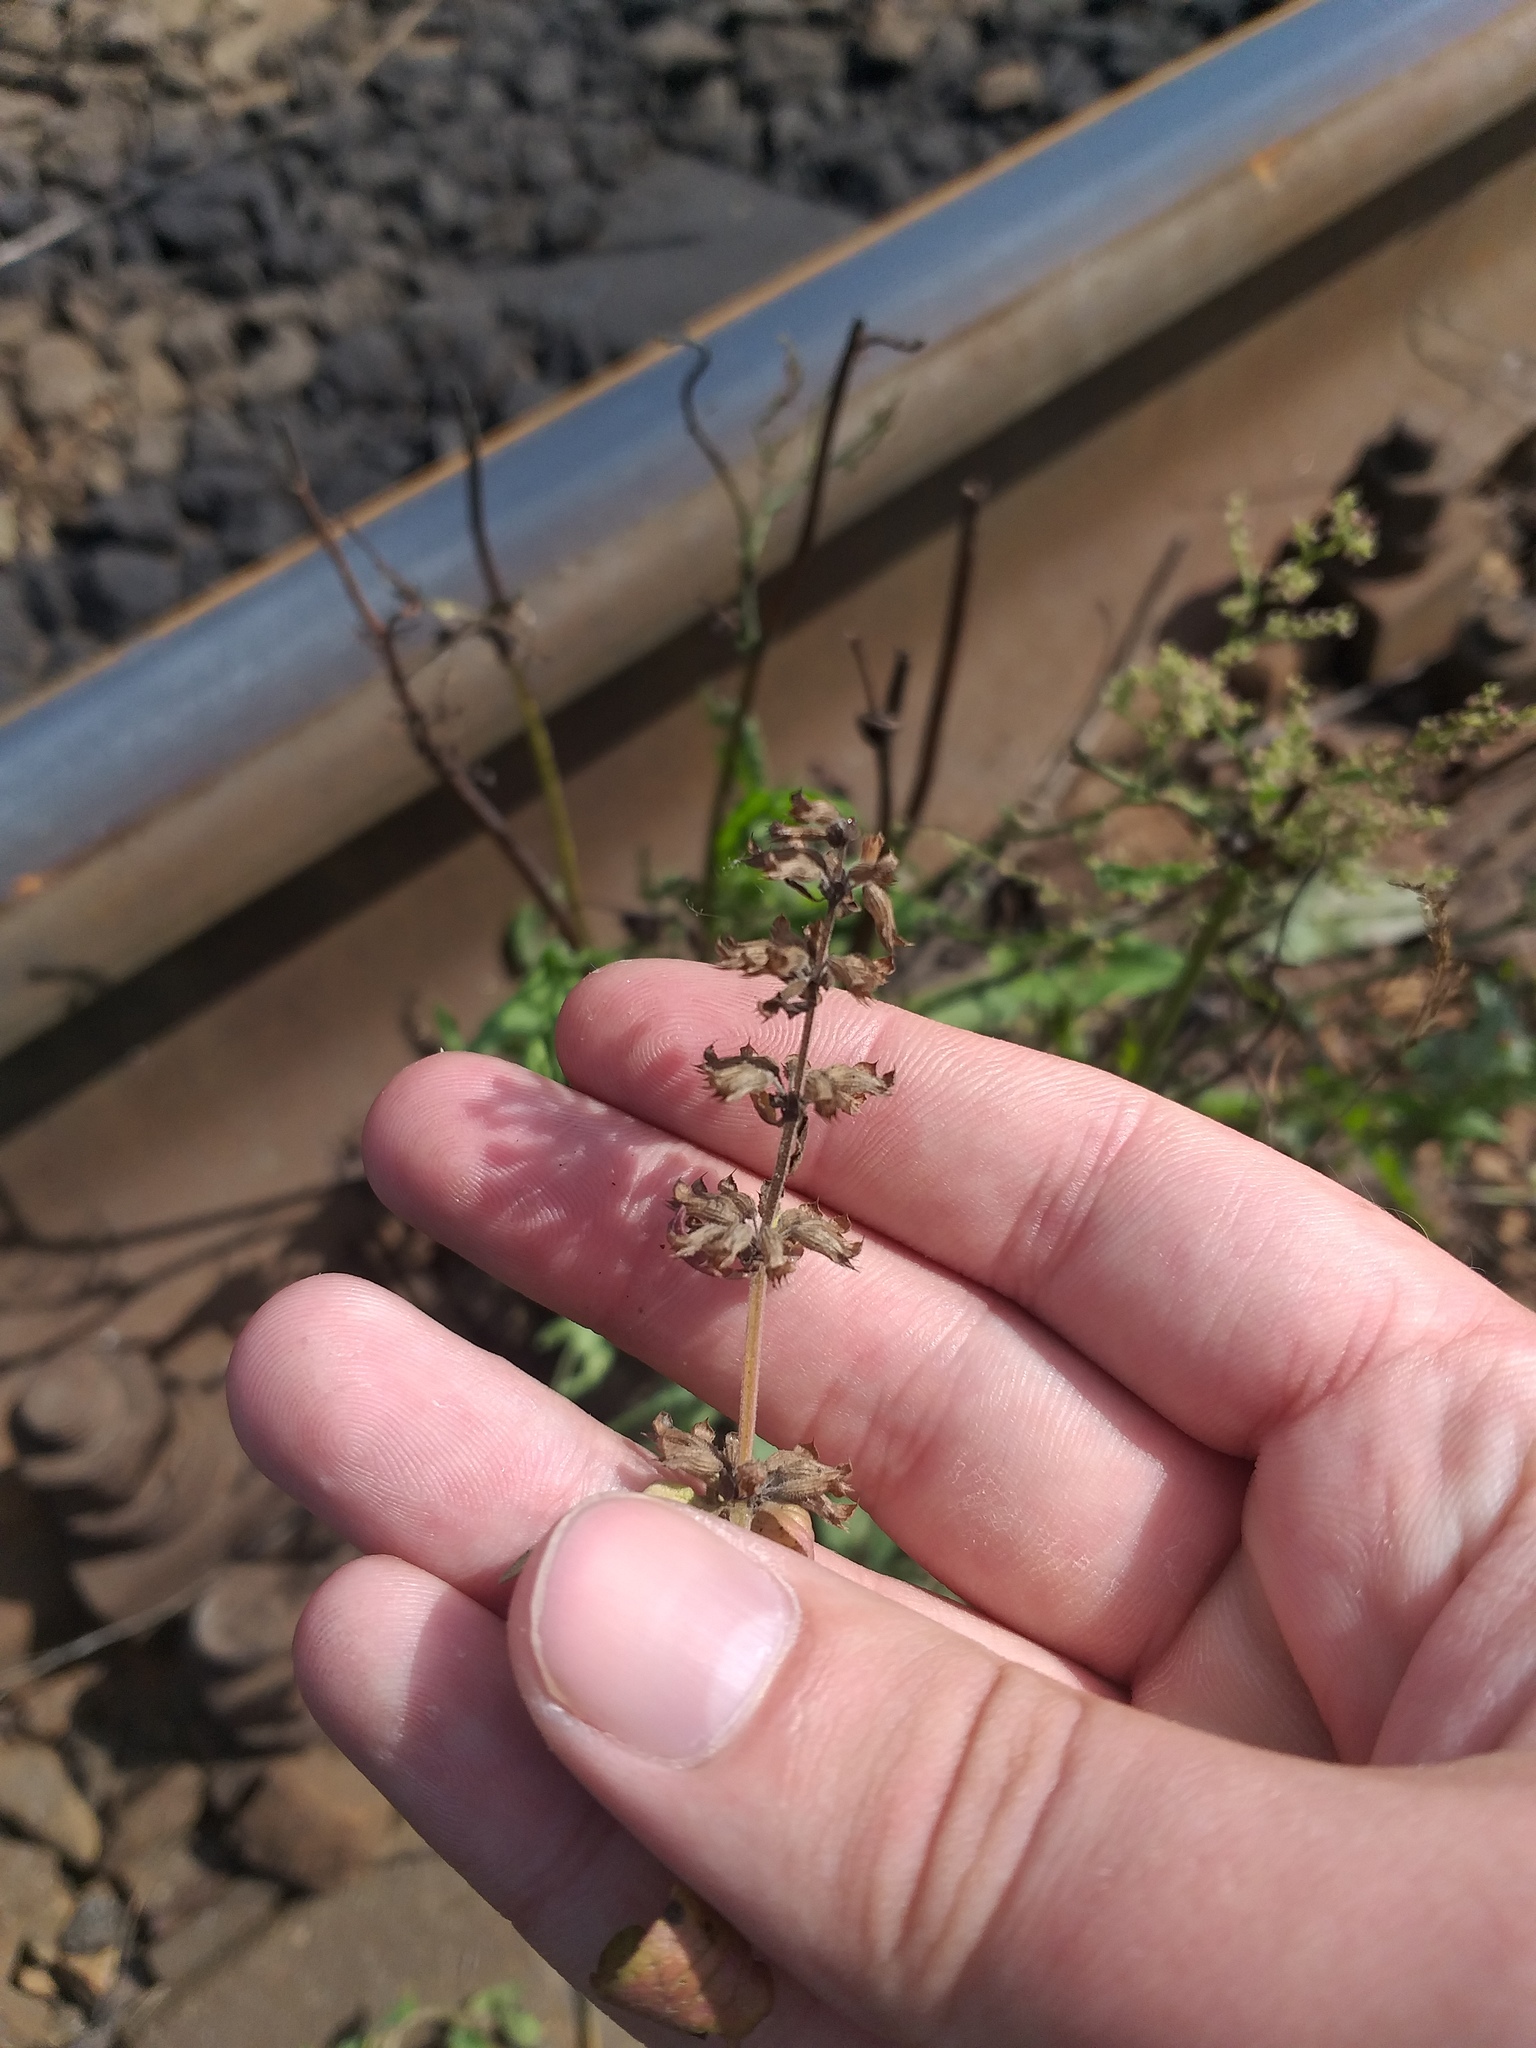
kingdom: Plantae
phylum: Tracheophyta
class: Magnoliopsida
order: Lamiales
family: Lamiaceae
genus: Dracocephalum
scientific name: Dracocephalum nutans
